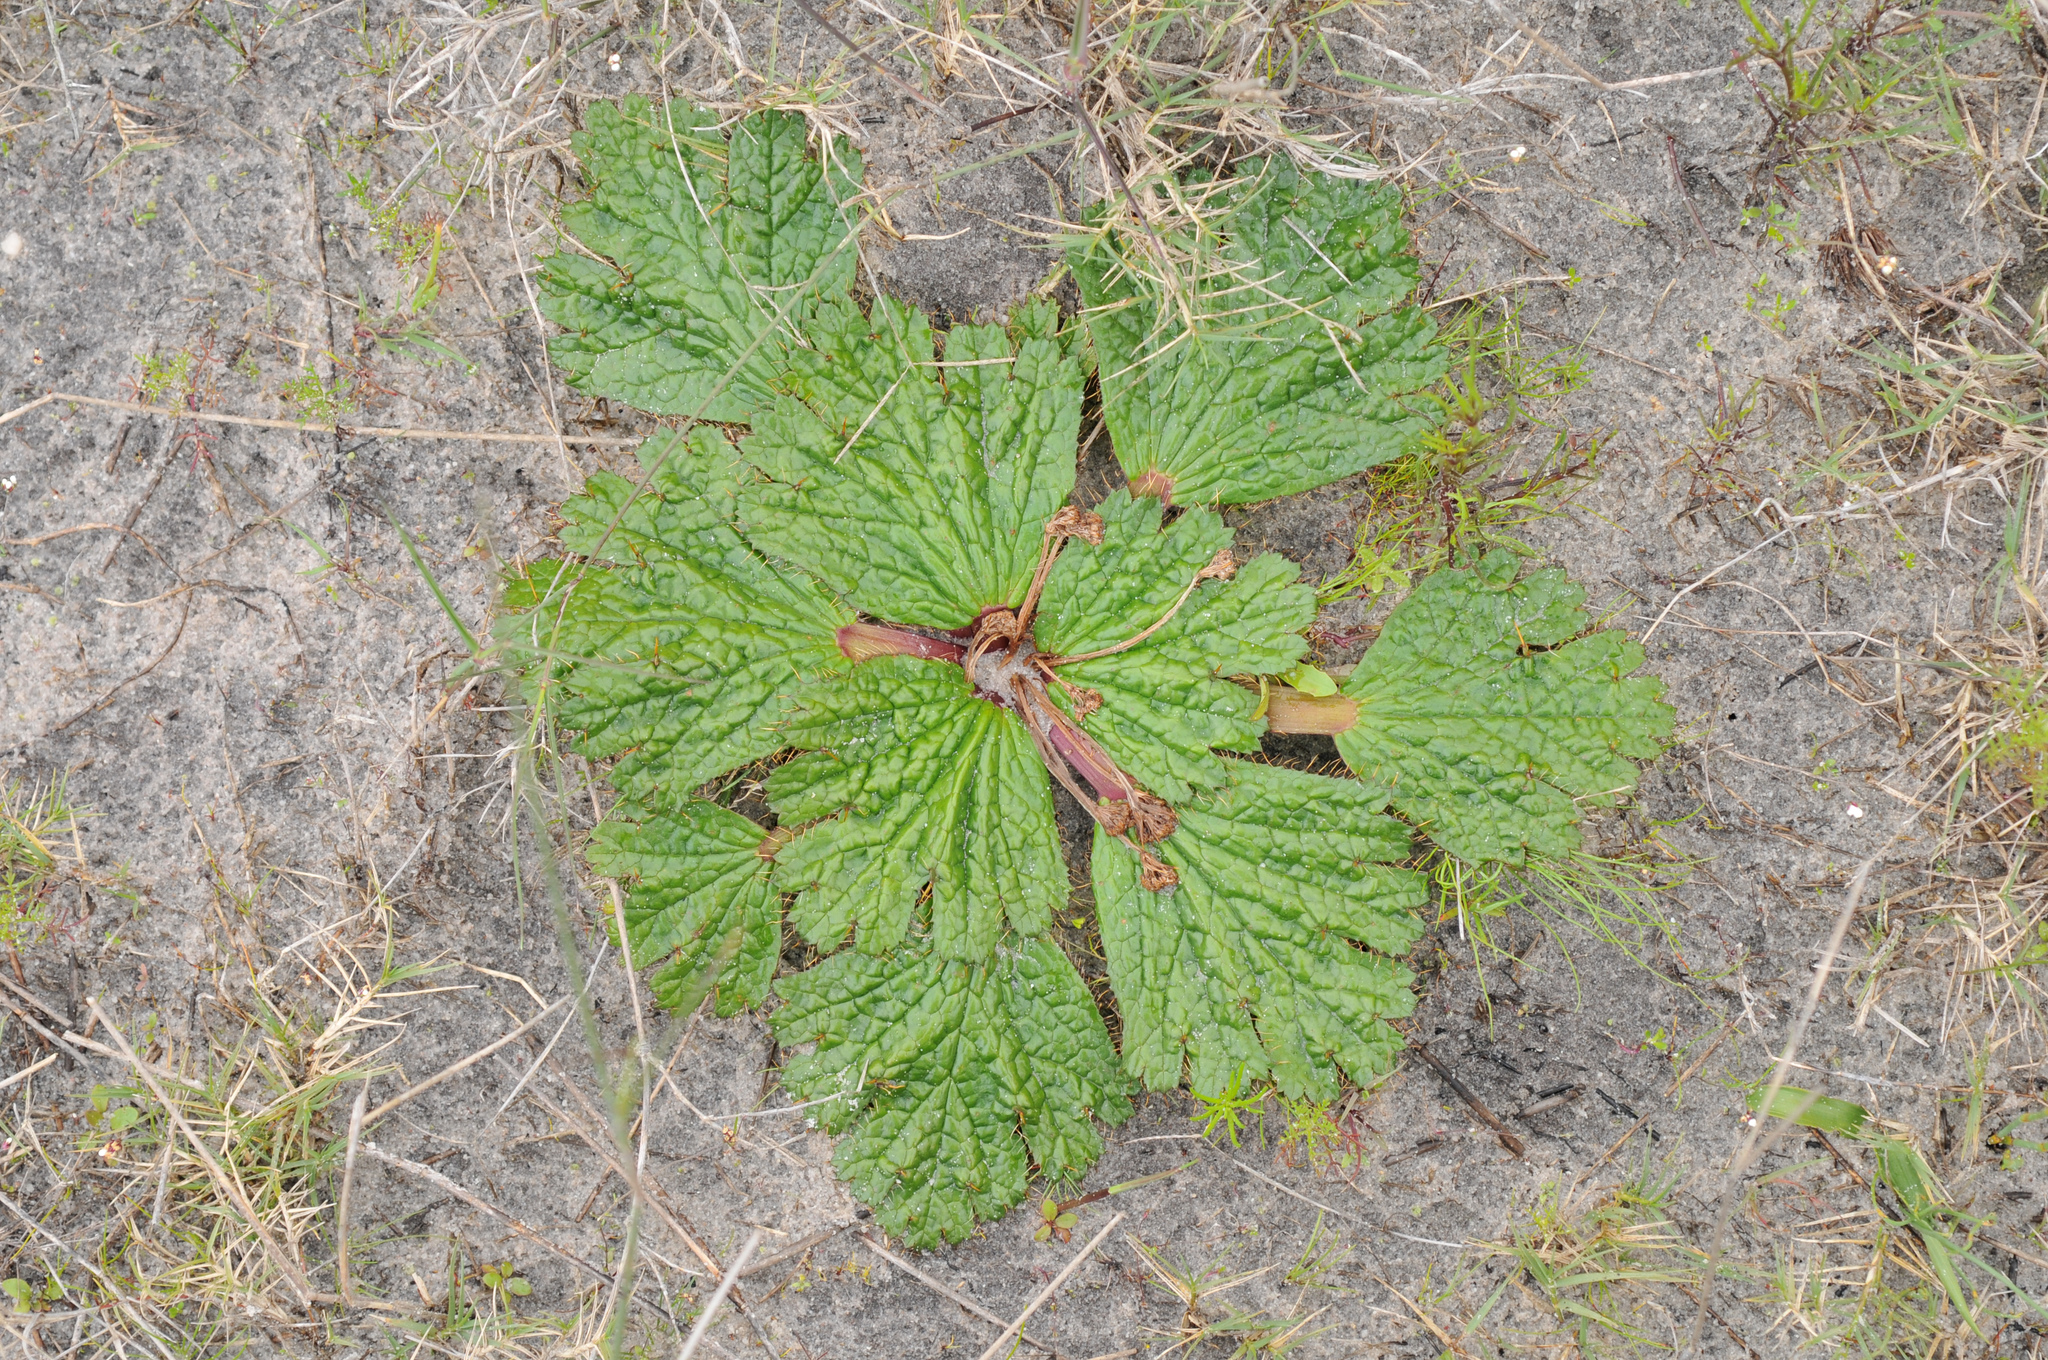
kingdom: Plantae
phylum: Tracheophyta
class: Magnoliopsida
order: Apiales
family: Apiaceae
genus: Arctopus
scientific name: Arctopus echinatus
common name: Platdoring
